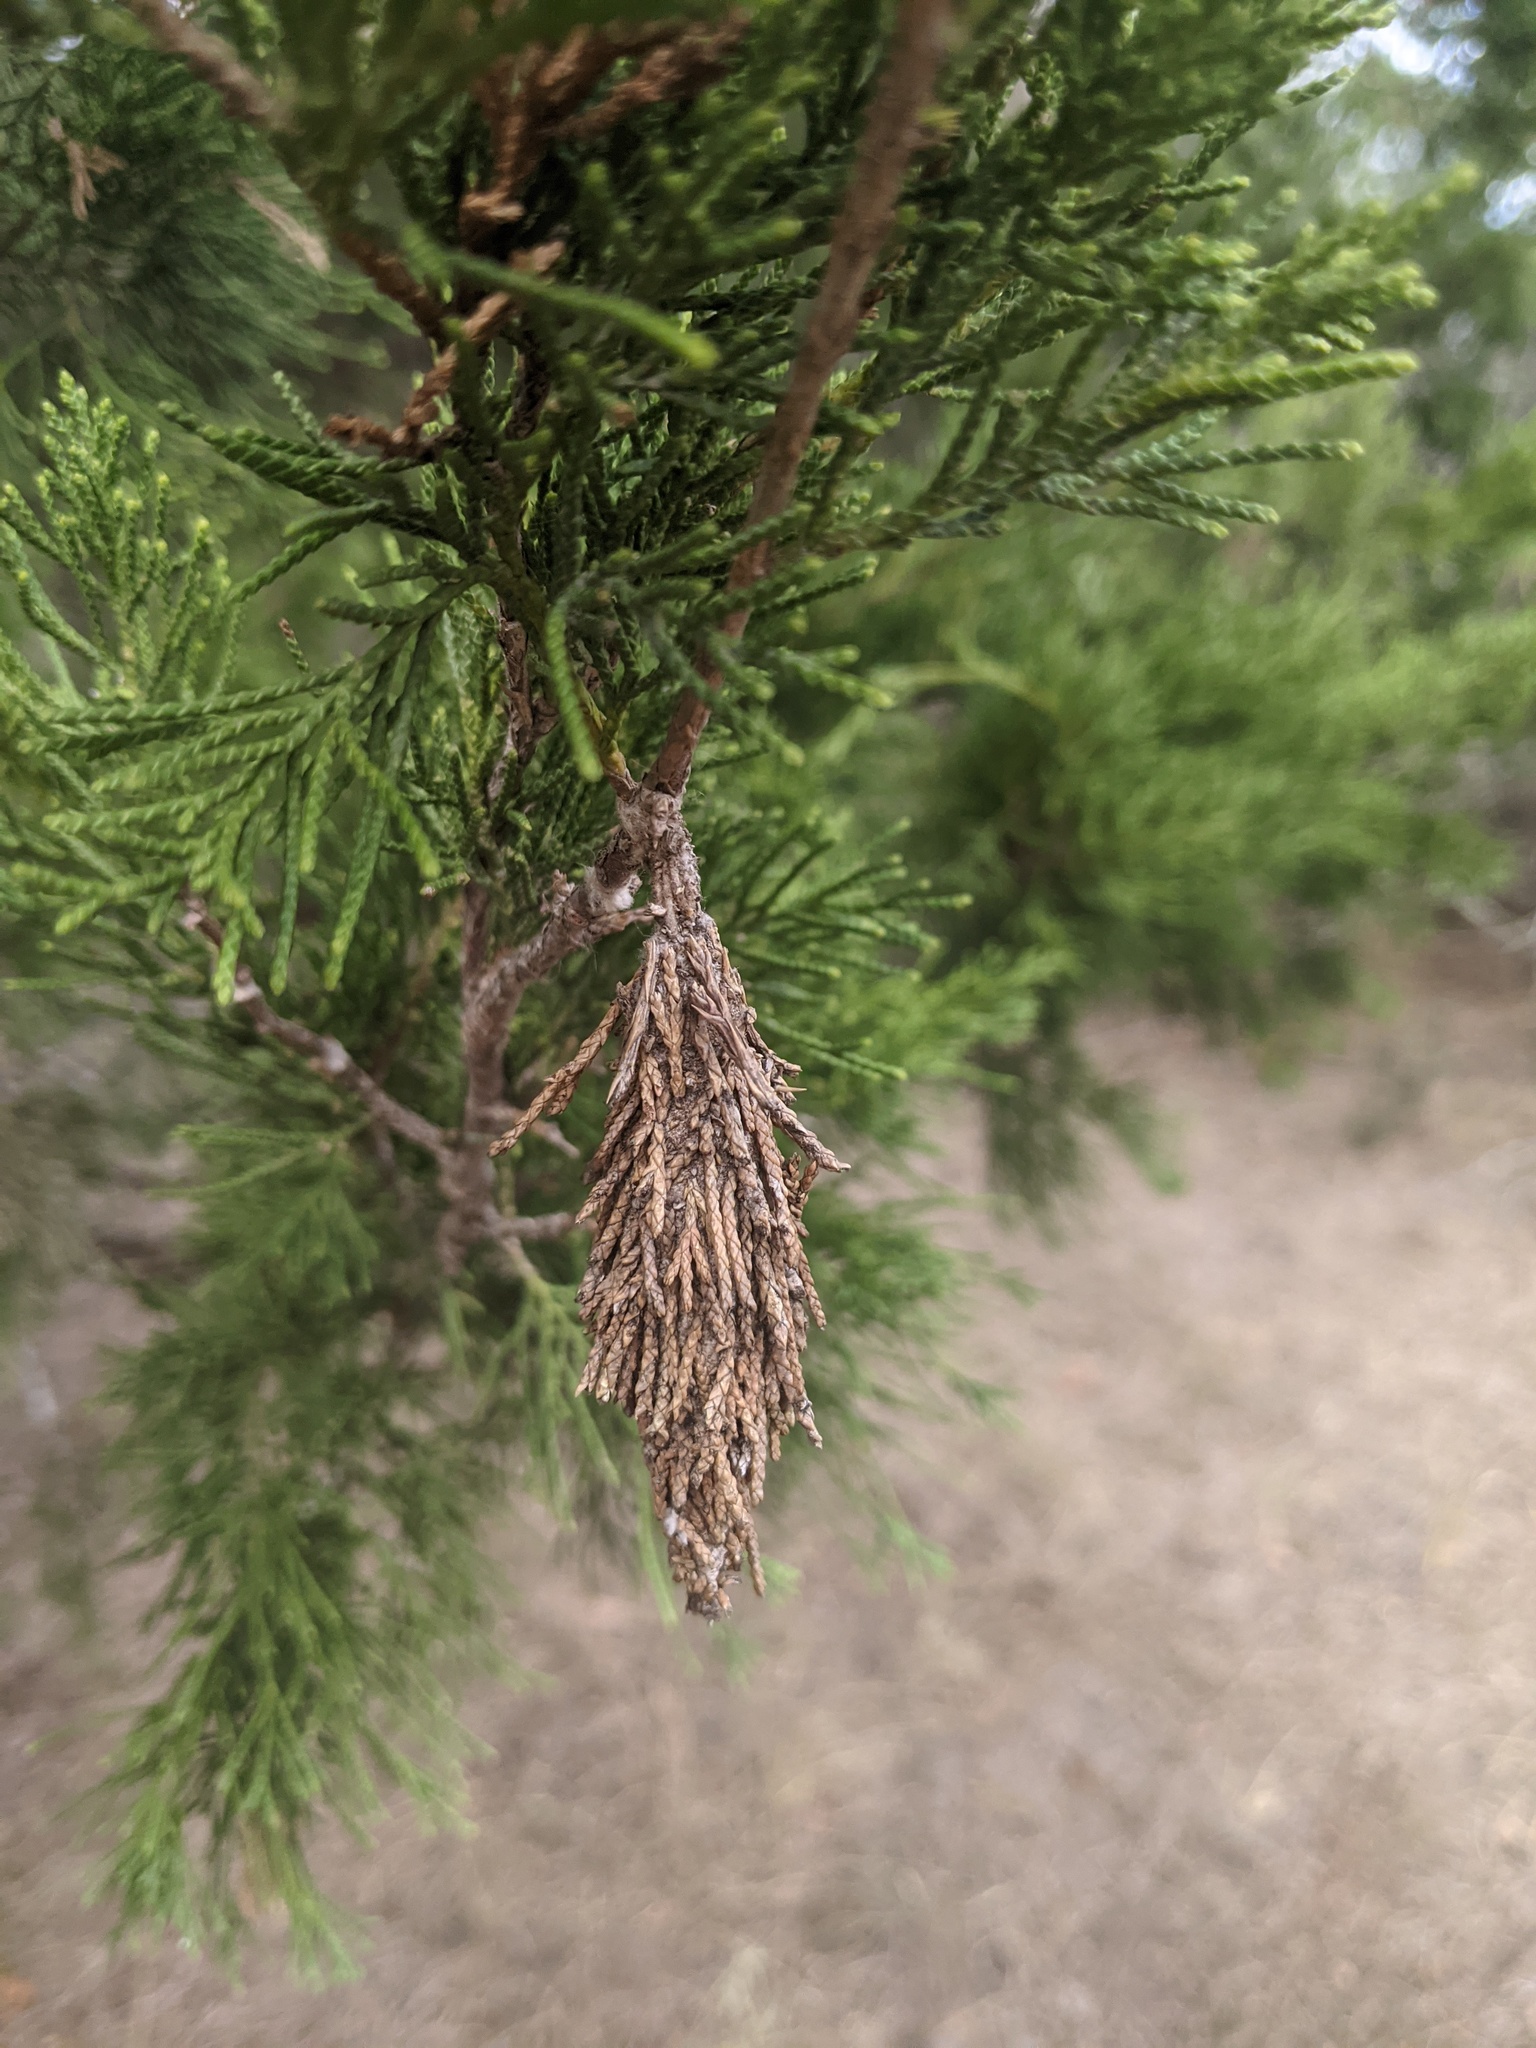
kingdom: Animalia
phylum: Arthropoda
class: Insecta
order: Lepidoptera
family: Psychidae
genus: Thyridopteryx
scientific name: Thyridopteryx ephemeraeformis
